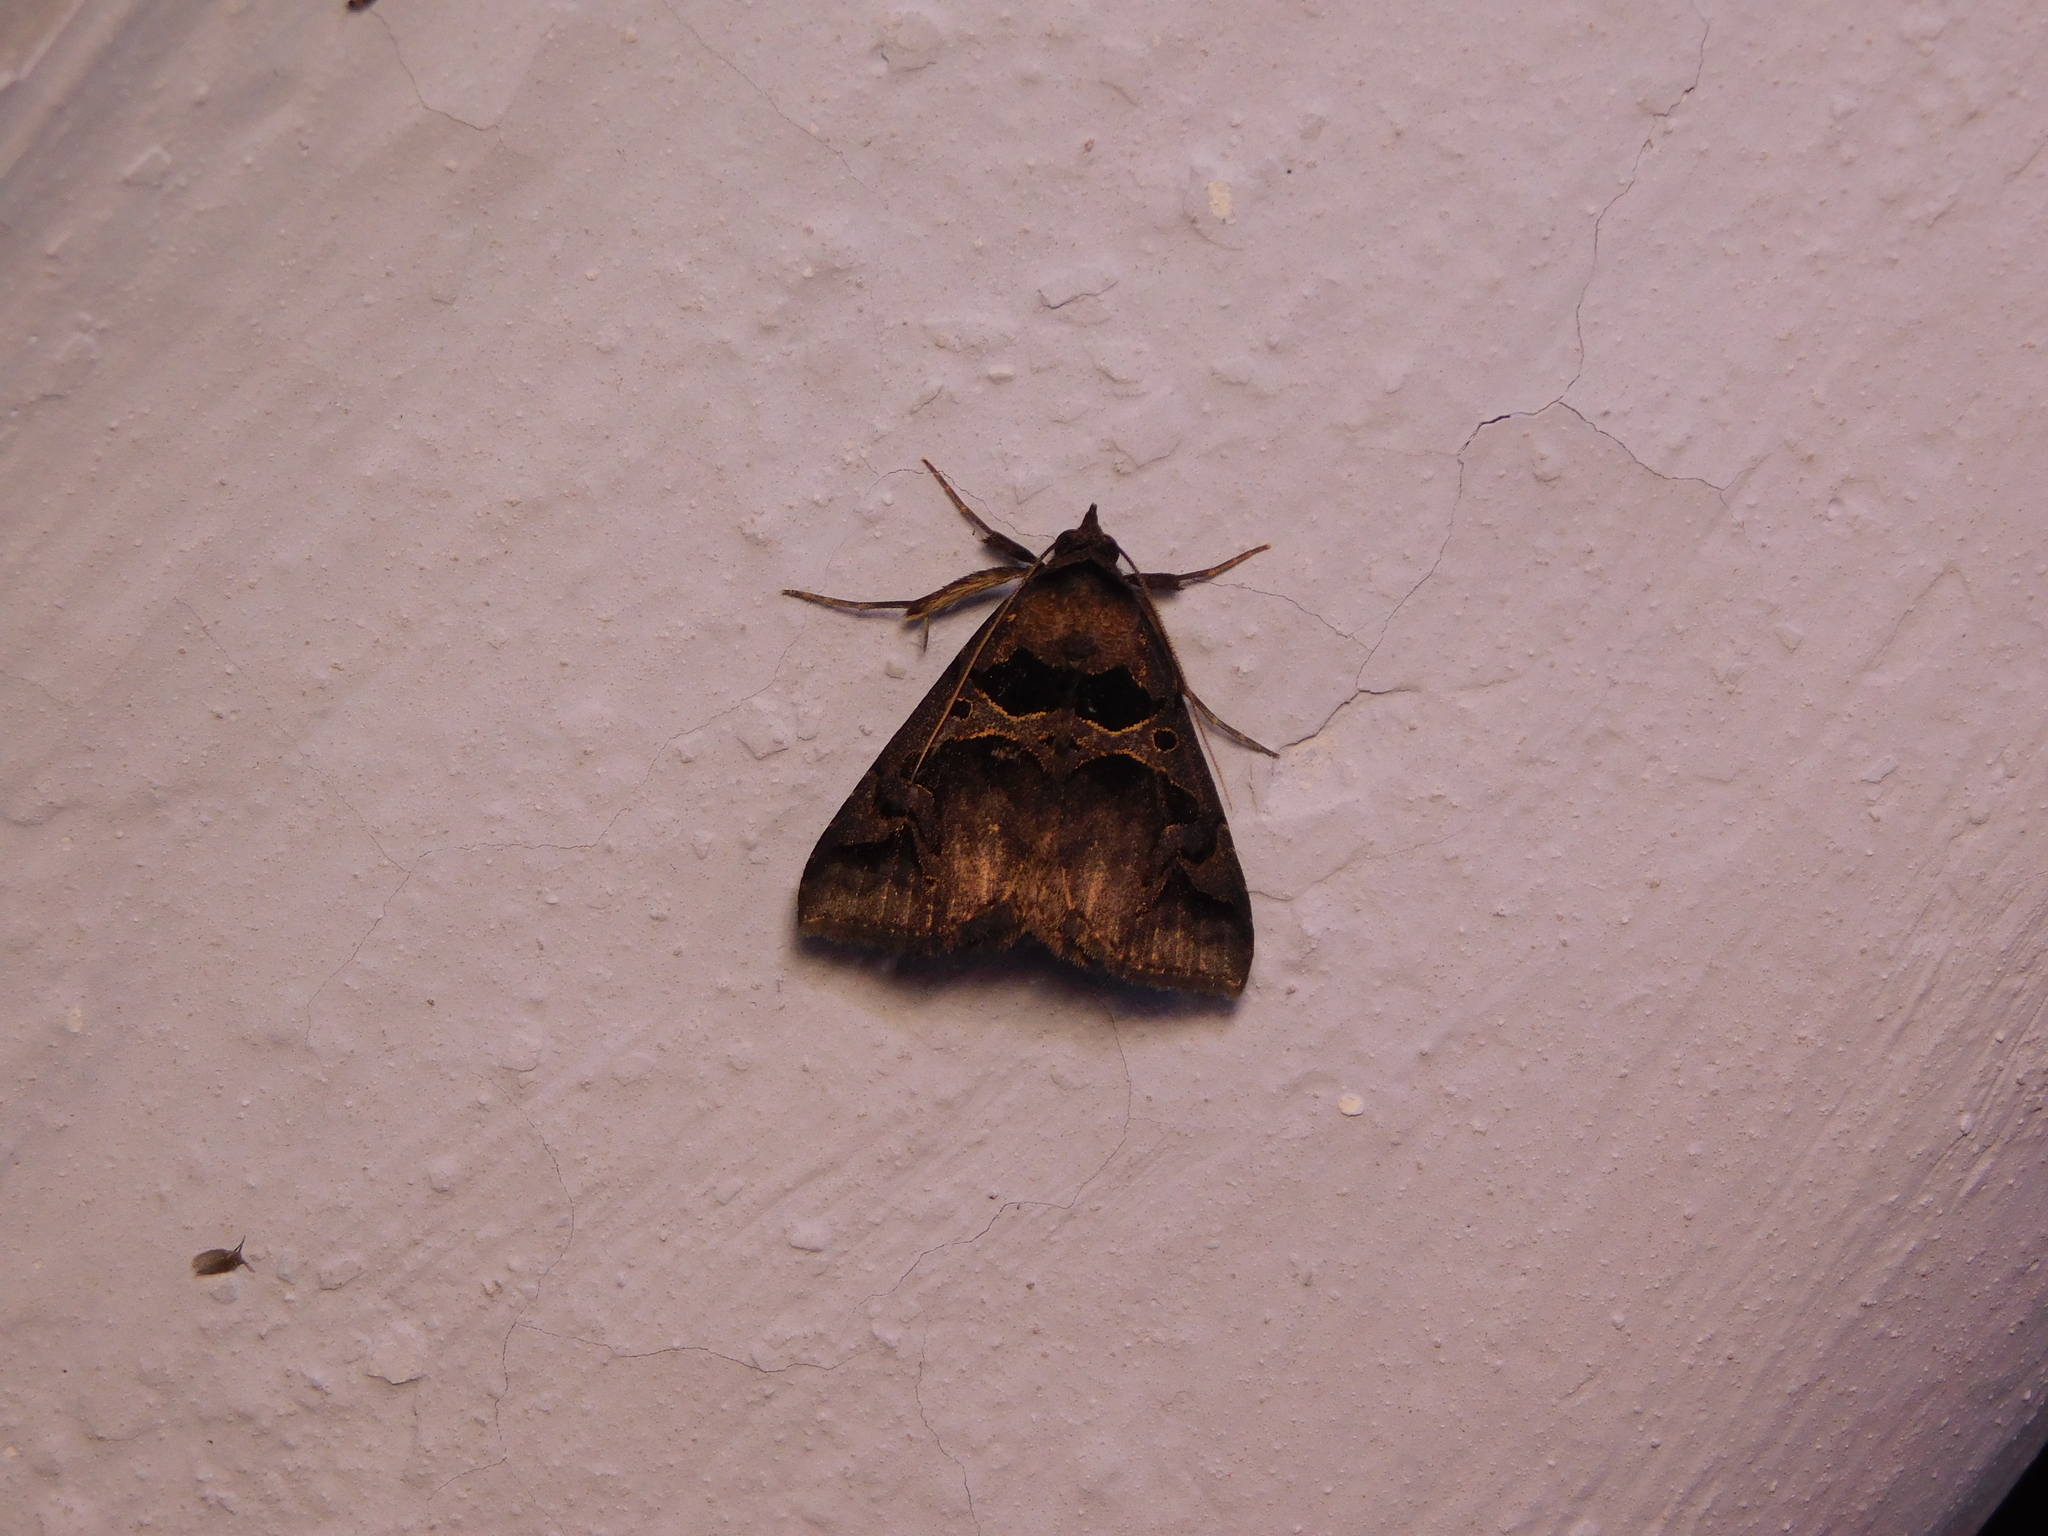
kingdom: Animalia
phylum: Arthropoda
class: Insecta
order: Lepidoptera
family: Erebidae
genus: Anoba
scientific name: Anoba lunifera
